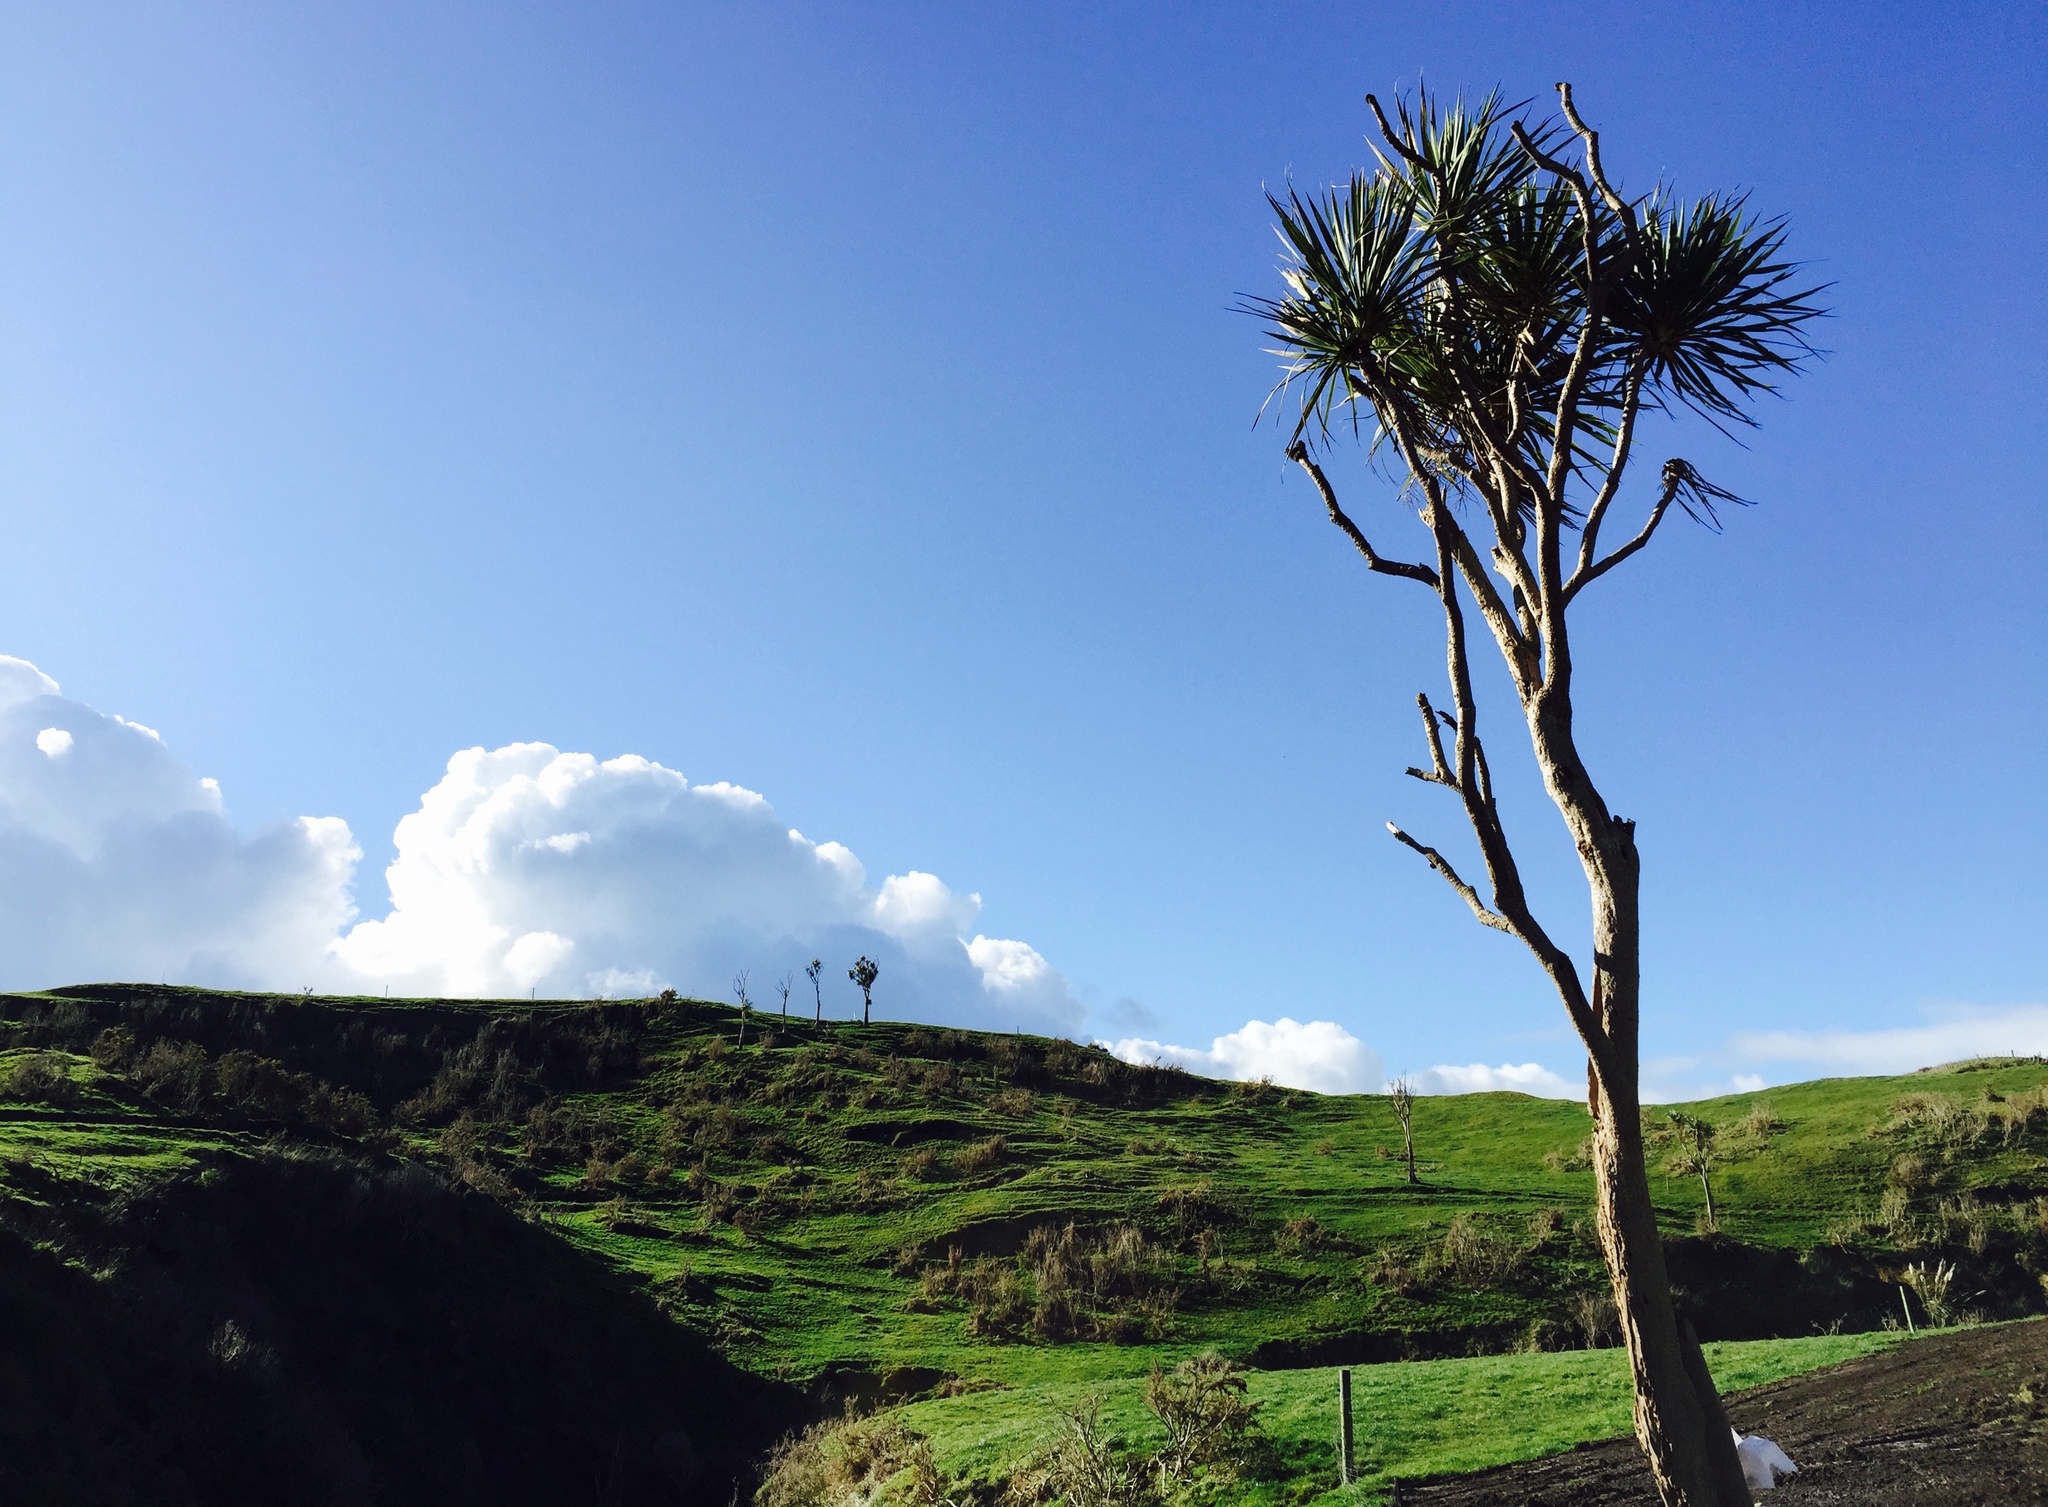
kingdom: Plantae
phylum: Tracheophyta
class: Liliopsida
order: Asparagales
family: Asparagaceae
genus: Cordyline
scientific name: Cordyline australis
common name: Cabbage-palm
